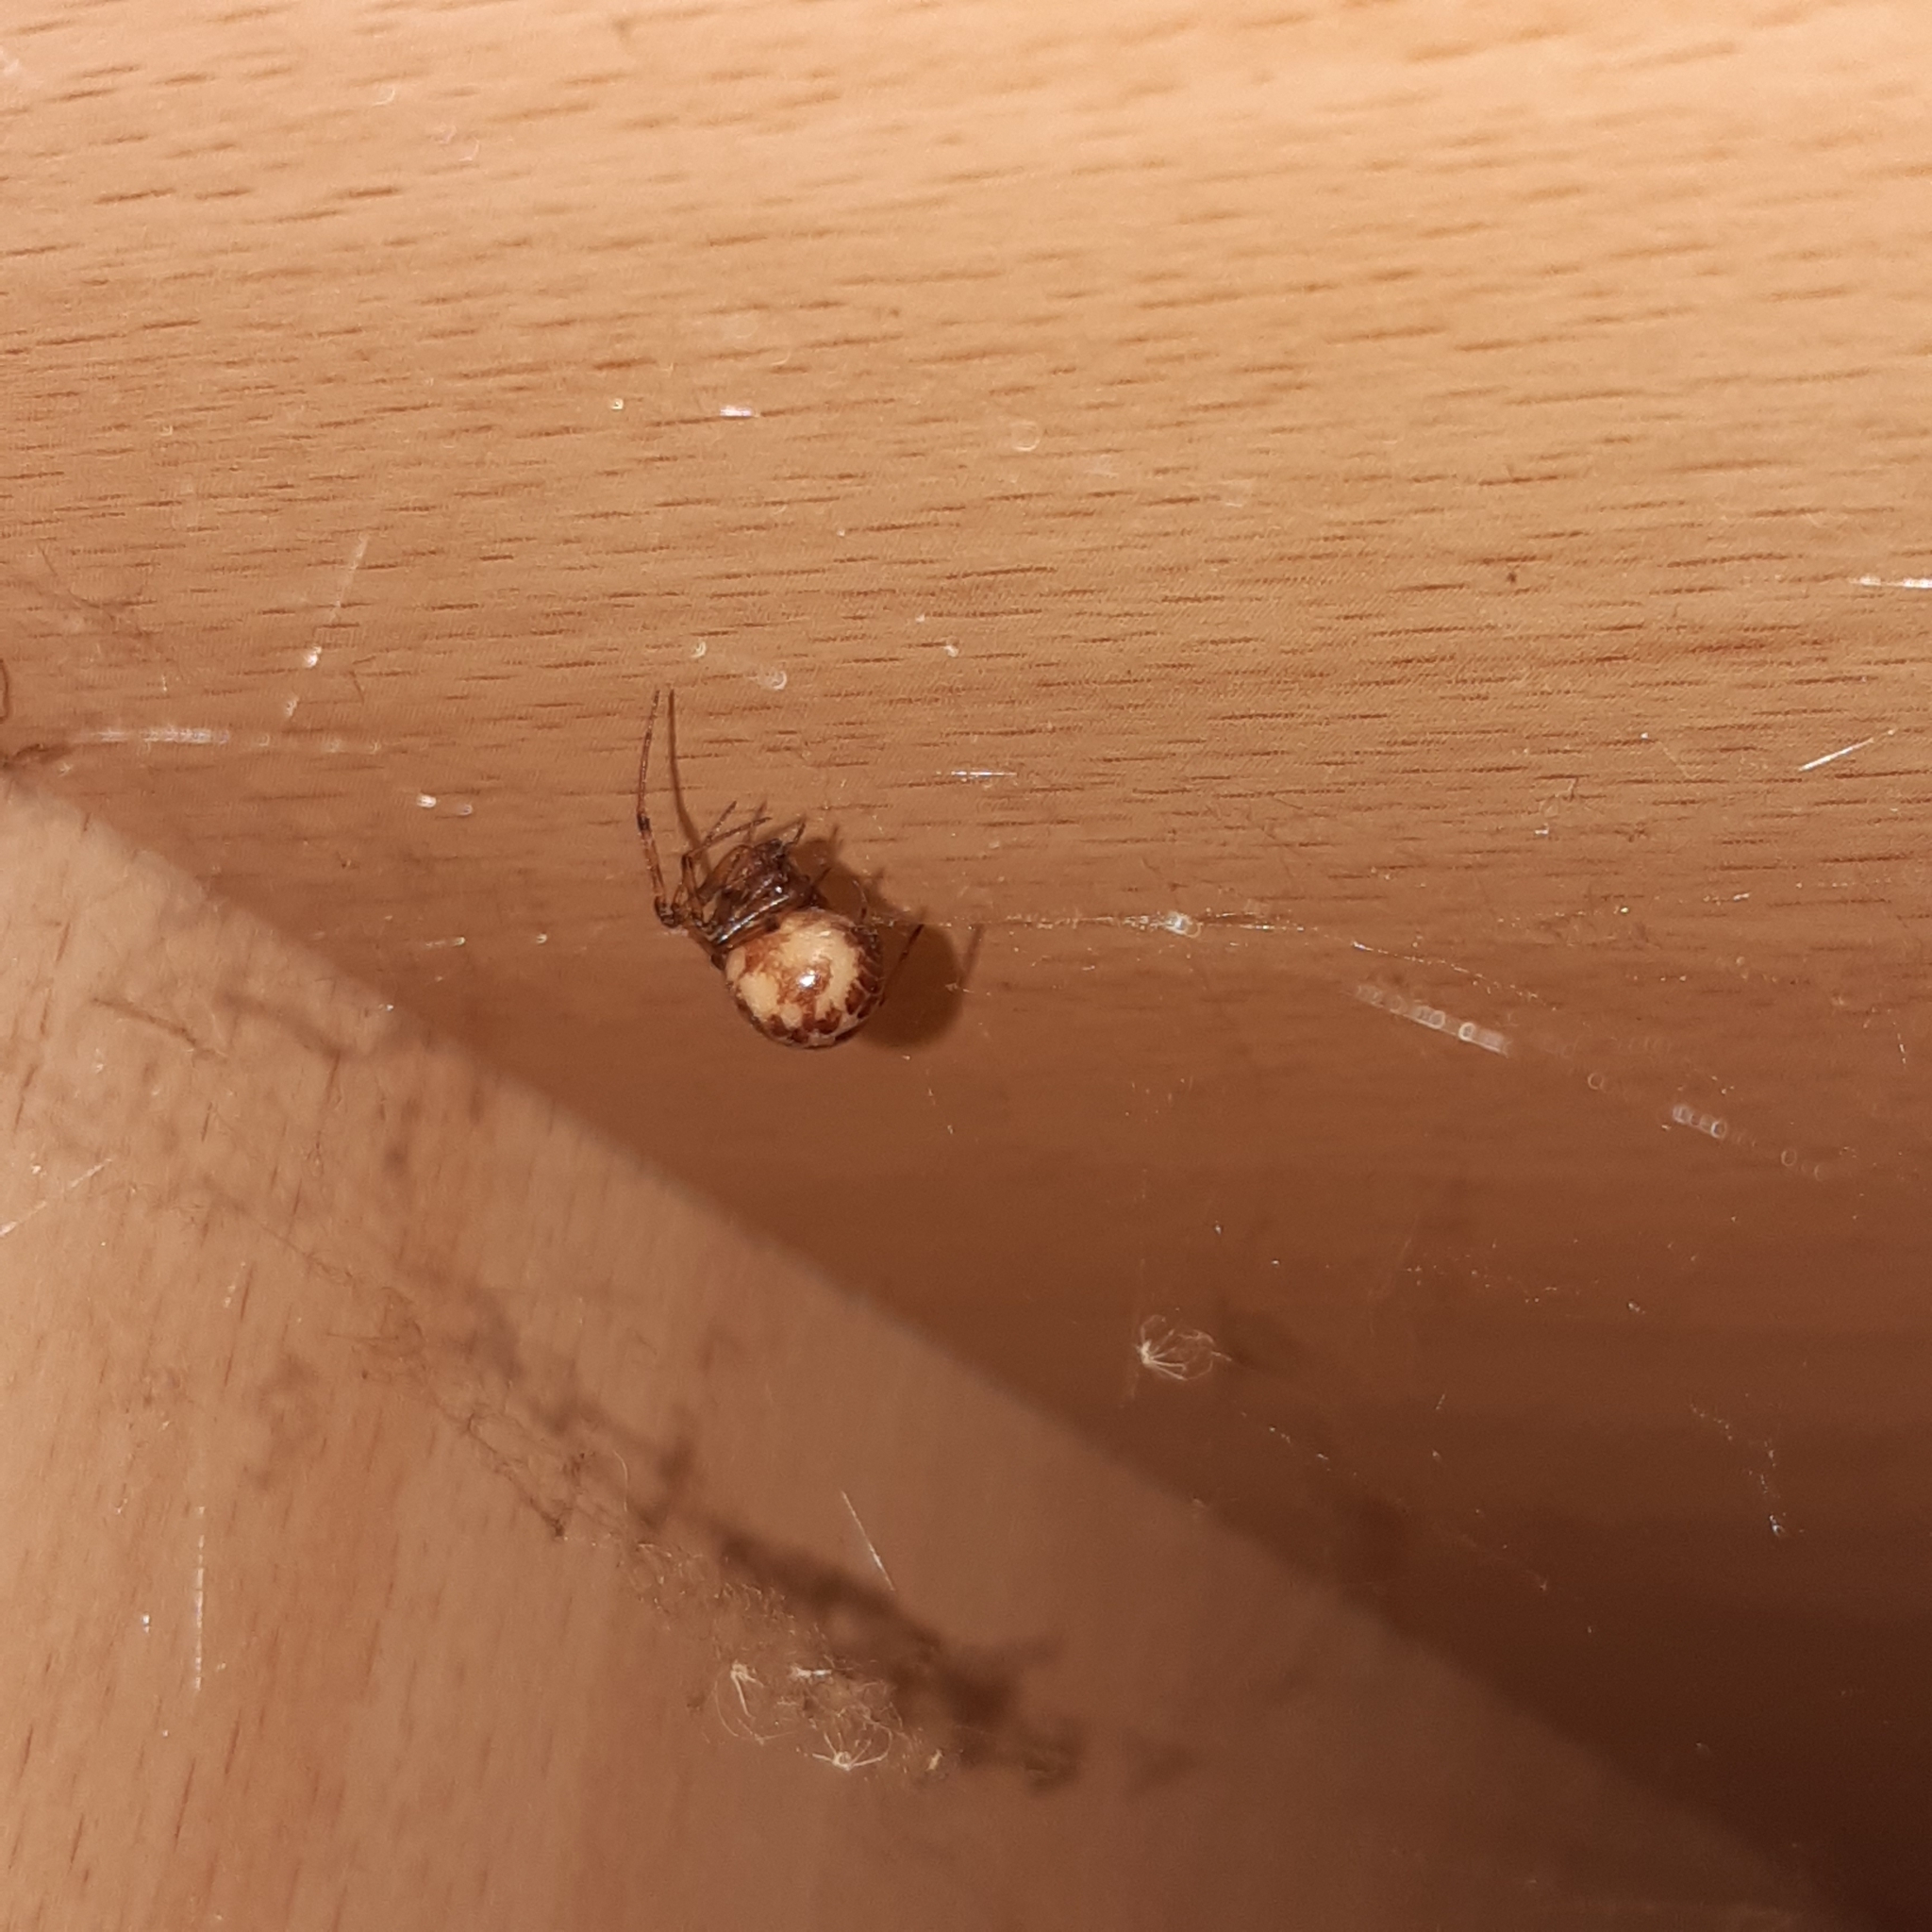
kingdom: Animalia
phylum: Arthropoda
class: Arachnida
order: Araneae
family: Theridiidae
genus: Steatoda
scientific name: Steatoda triangulosa
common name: Triangulate bud spider
